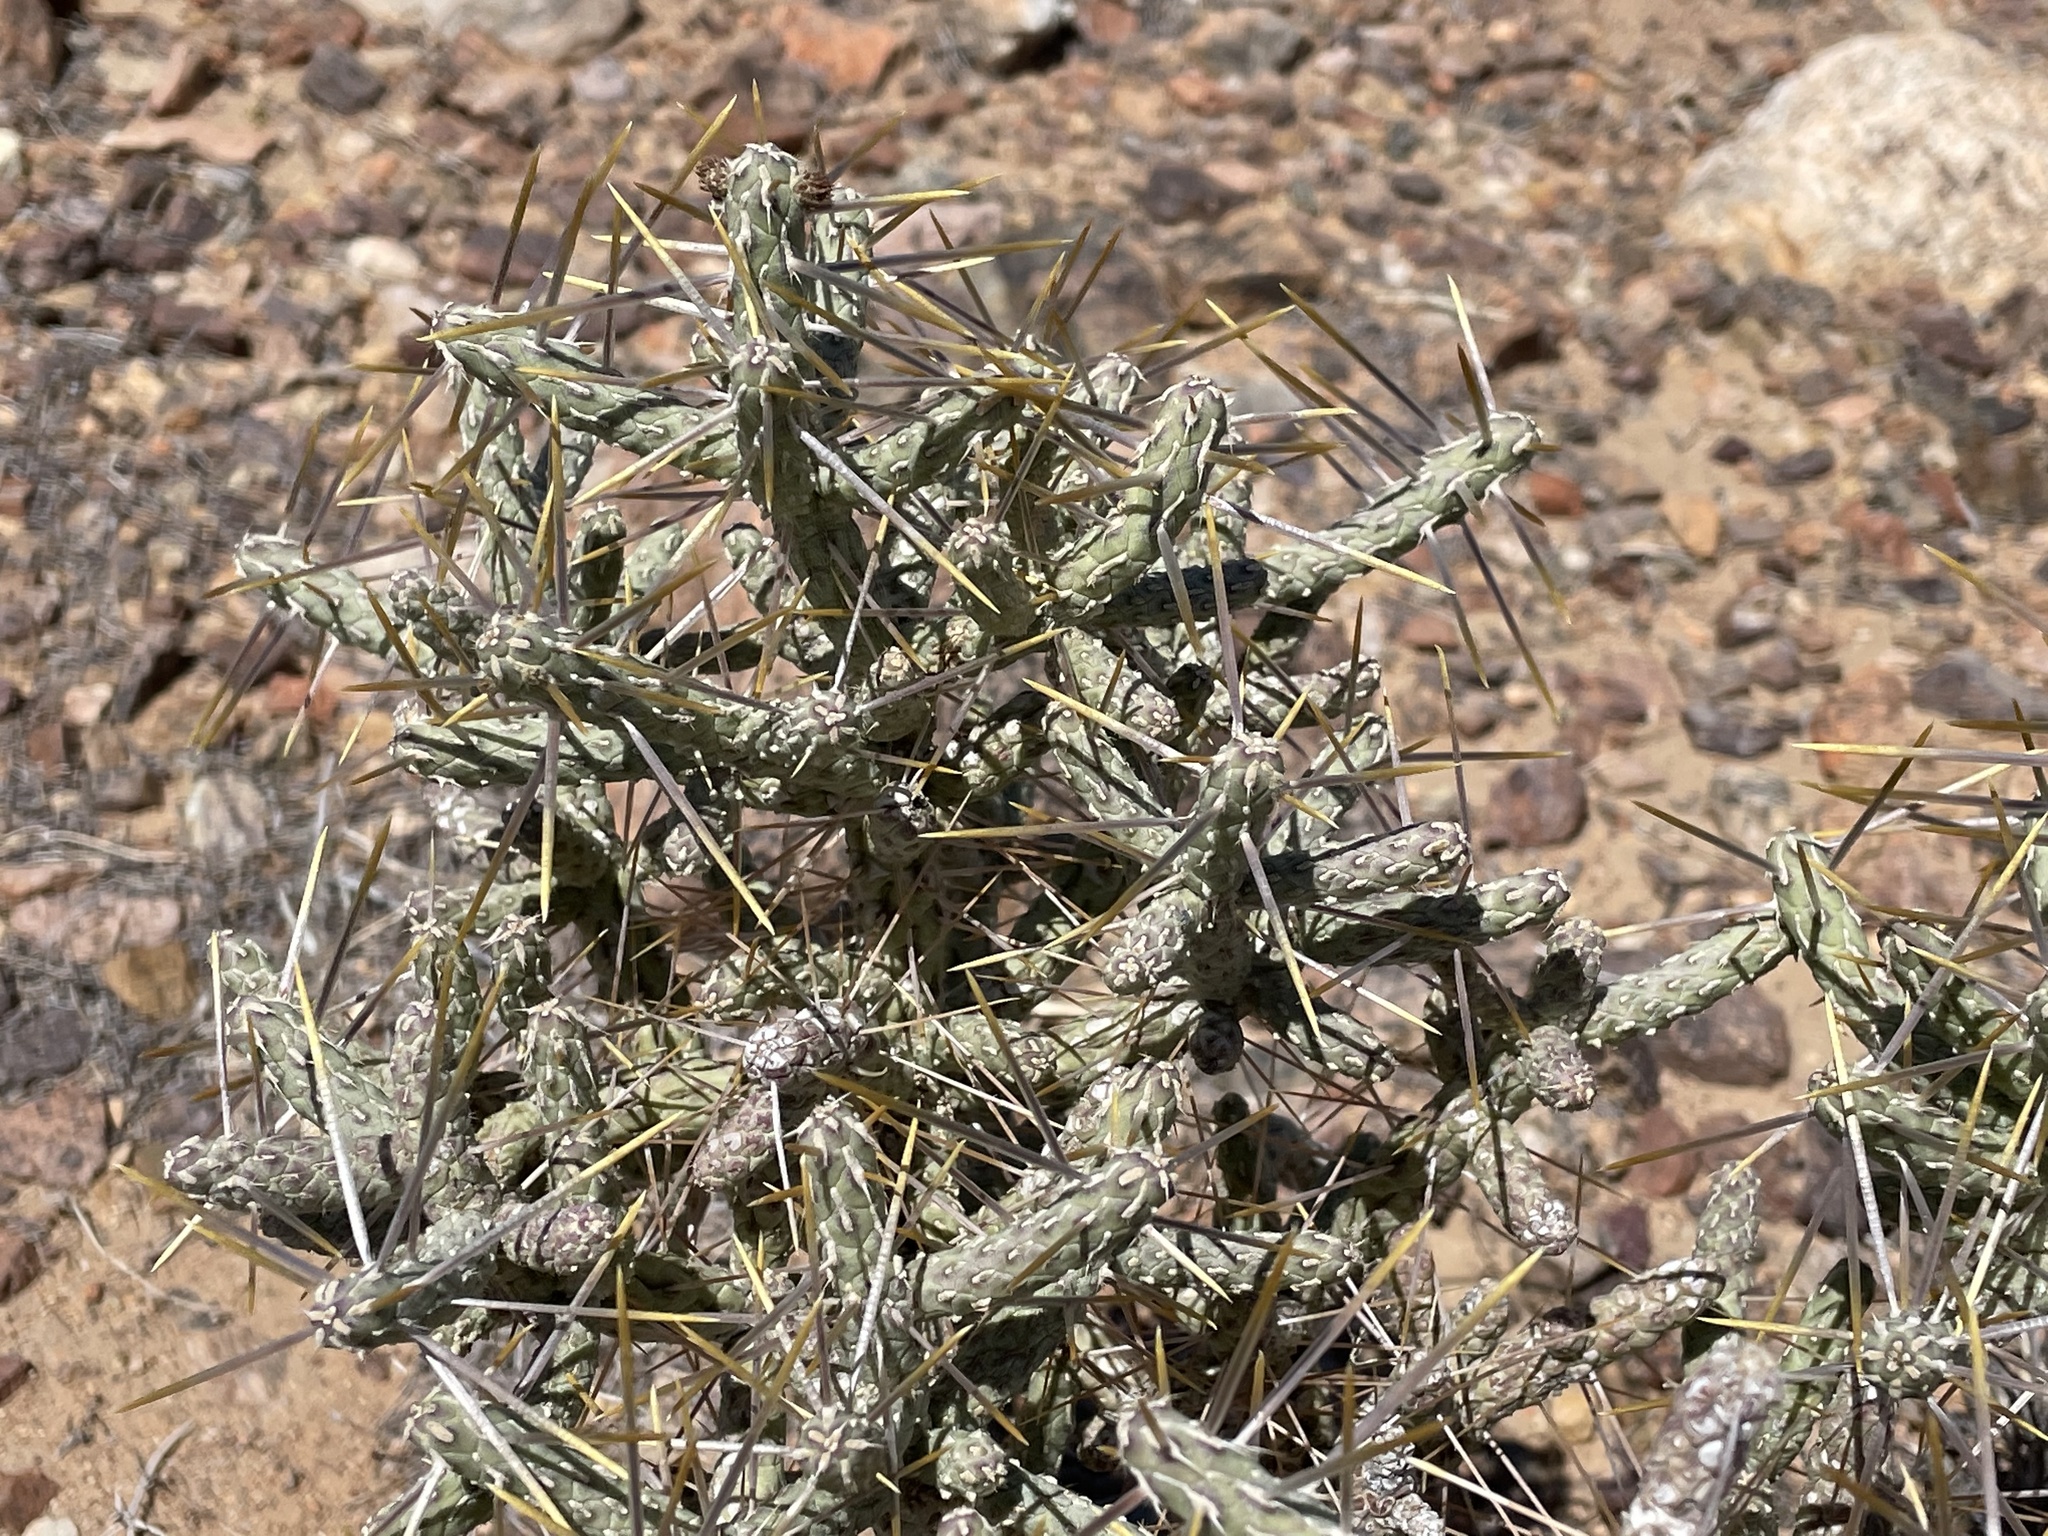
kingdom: Plantae
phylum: Tracheophyta
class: Magnoliopsida
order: Caryophyllales
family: Cactaceae
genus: Cylindropuntia
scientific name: Cylindropuntia ramosissima
